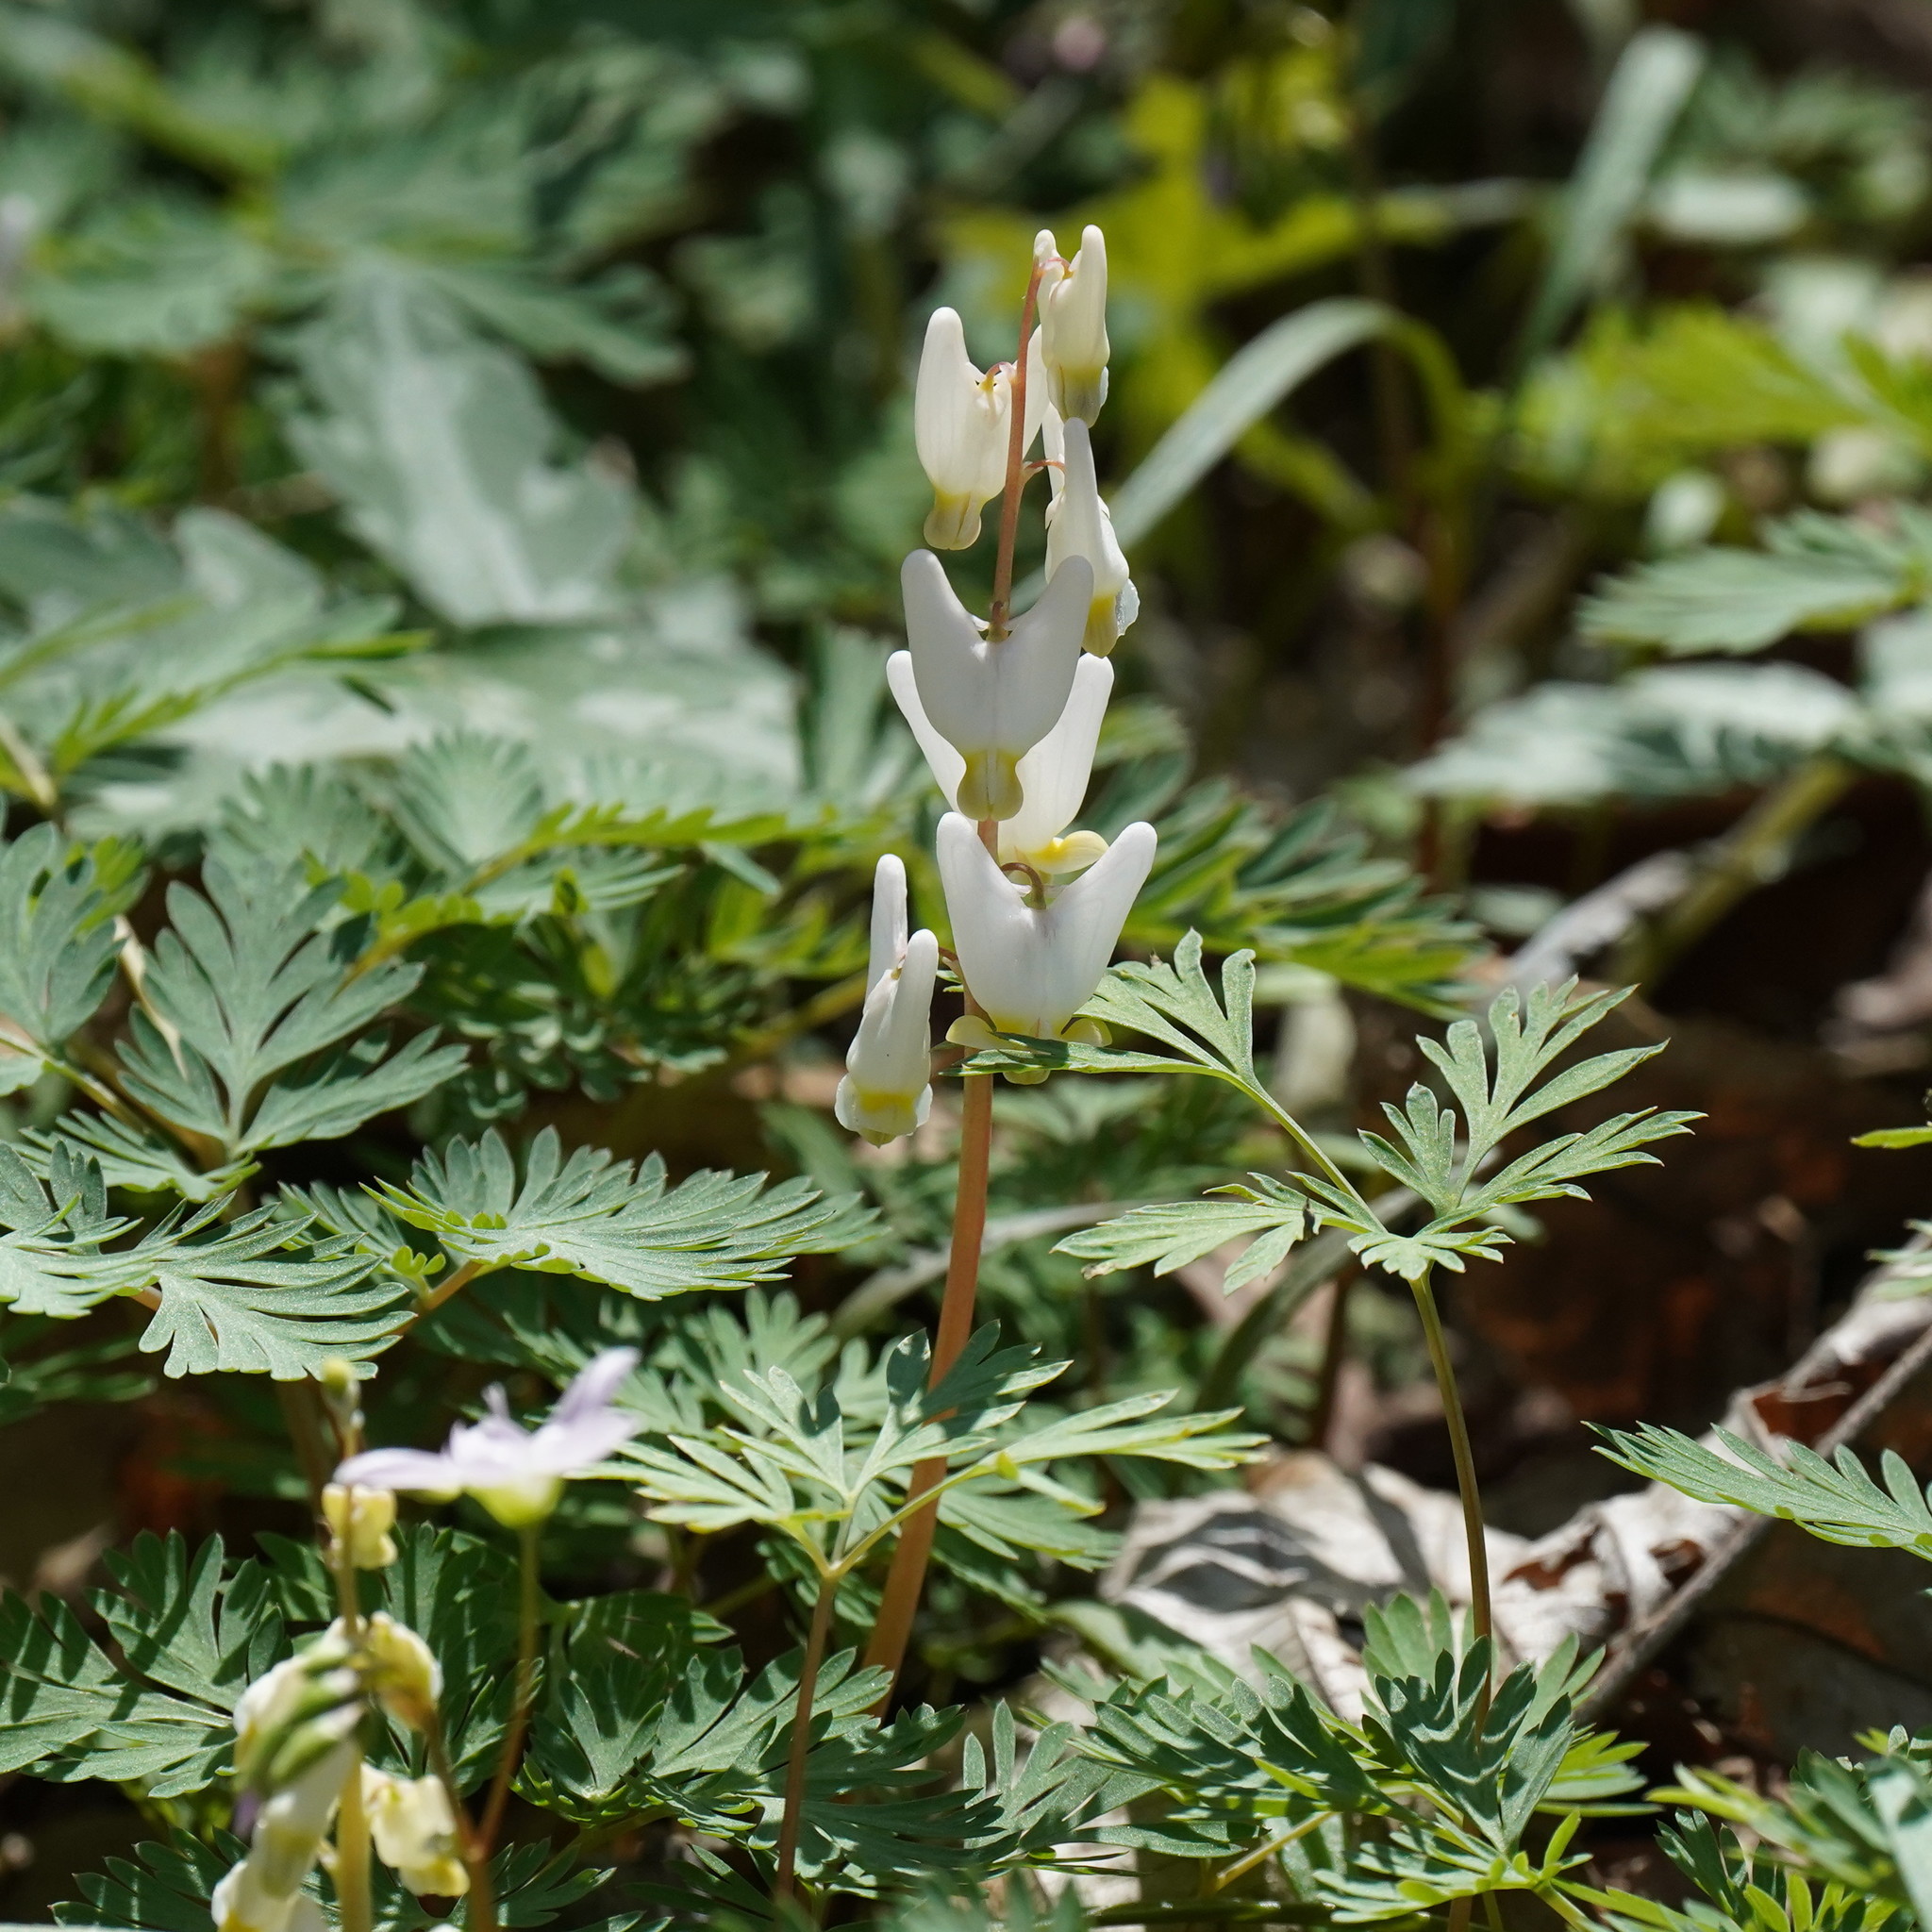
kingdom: Plantae
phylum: Tracheophyta
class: Magnoliopsida
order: Ranunculales
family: Papaveraceae
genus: Dicentra
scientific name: Dicentra cucullaria
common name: Dutchman's breeches
